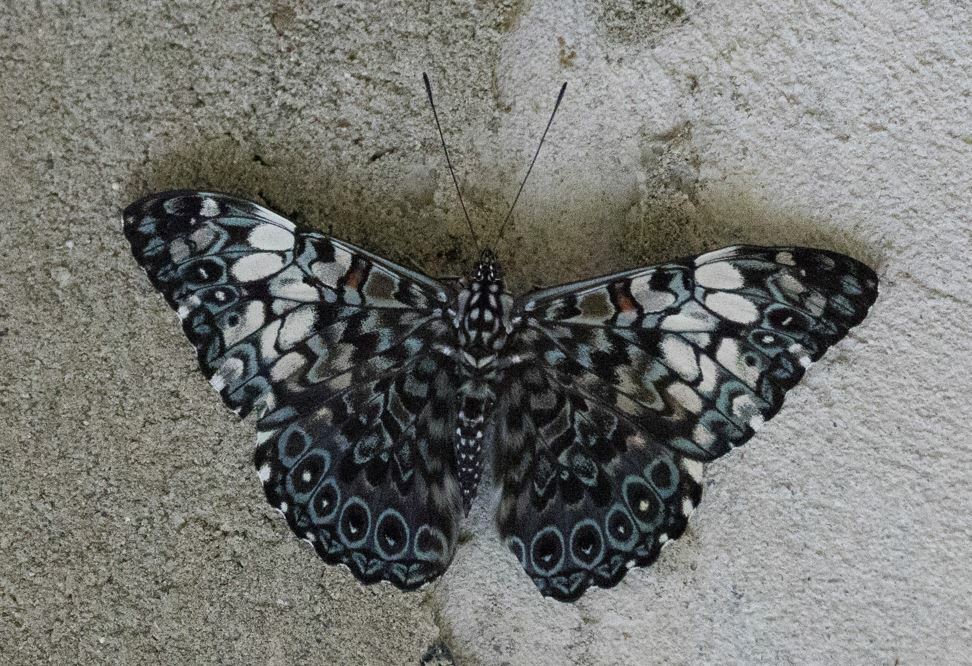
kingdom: Animalia
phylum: Arthropoda
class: Insecta
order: Lepidoptera
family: Nymphalidae
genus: Hamadryas
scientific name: Hamadryas fornax
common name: Orange cracker
